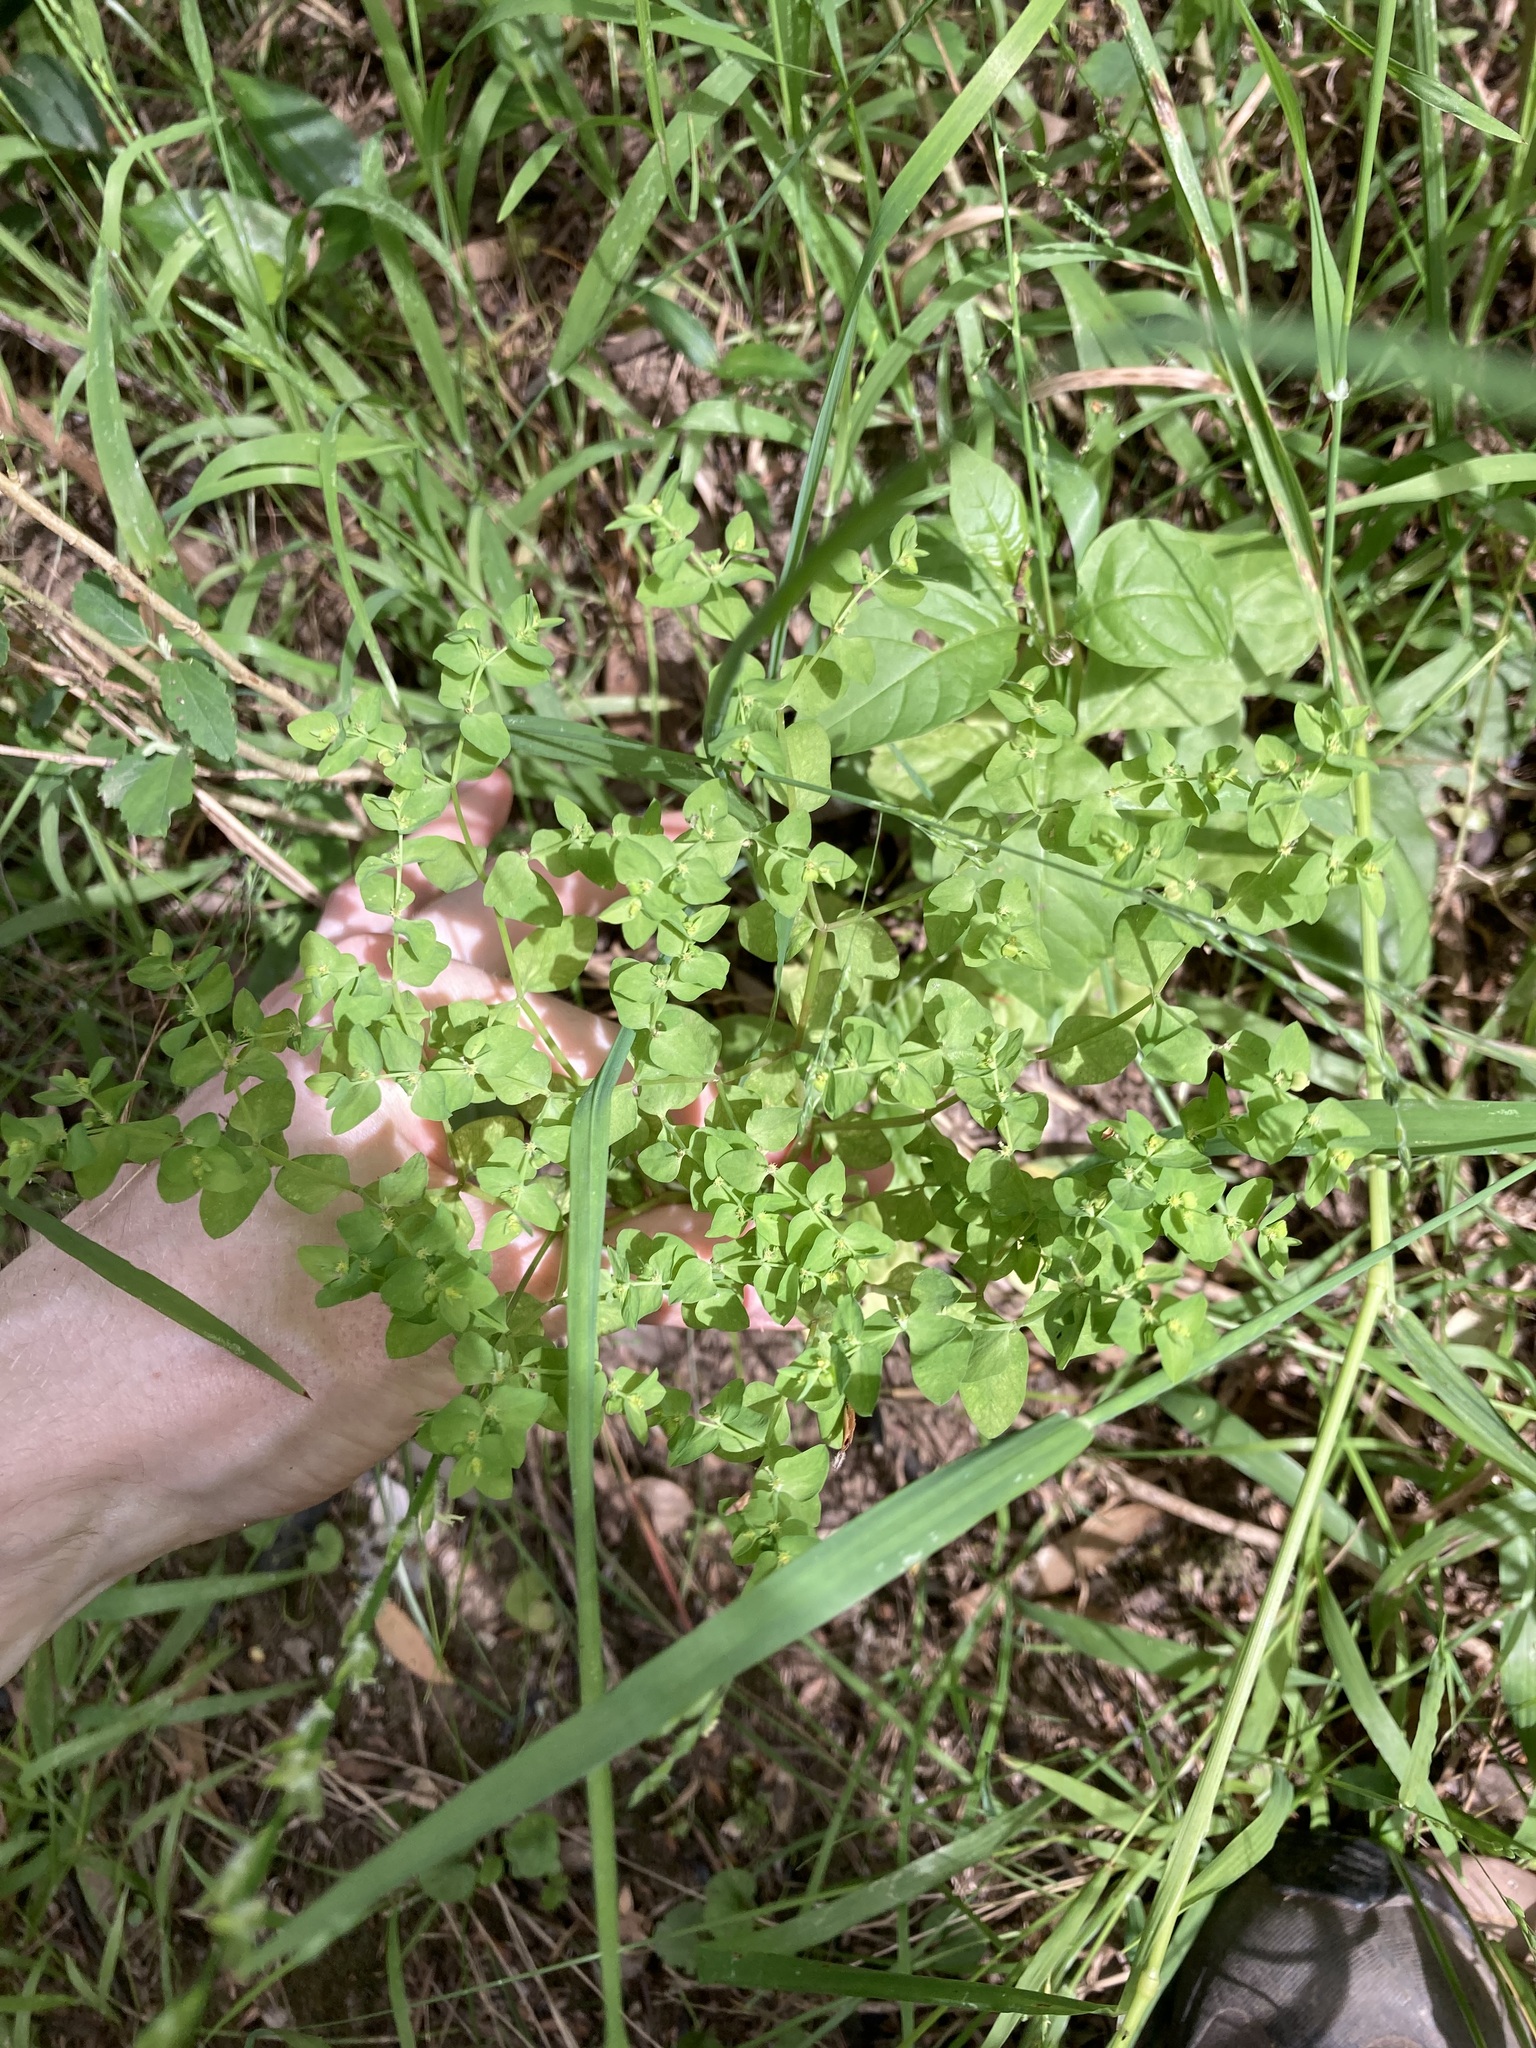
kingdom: Plantae
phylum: Tracheophyta
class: Magnoliopsida
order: Malpighiales
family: Euphorbiaceae
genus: Euphorbia
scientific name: Euphorbia peplus
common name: Petty spurge
